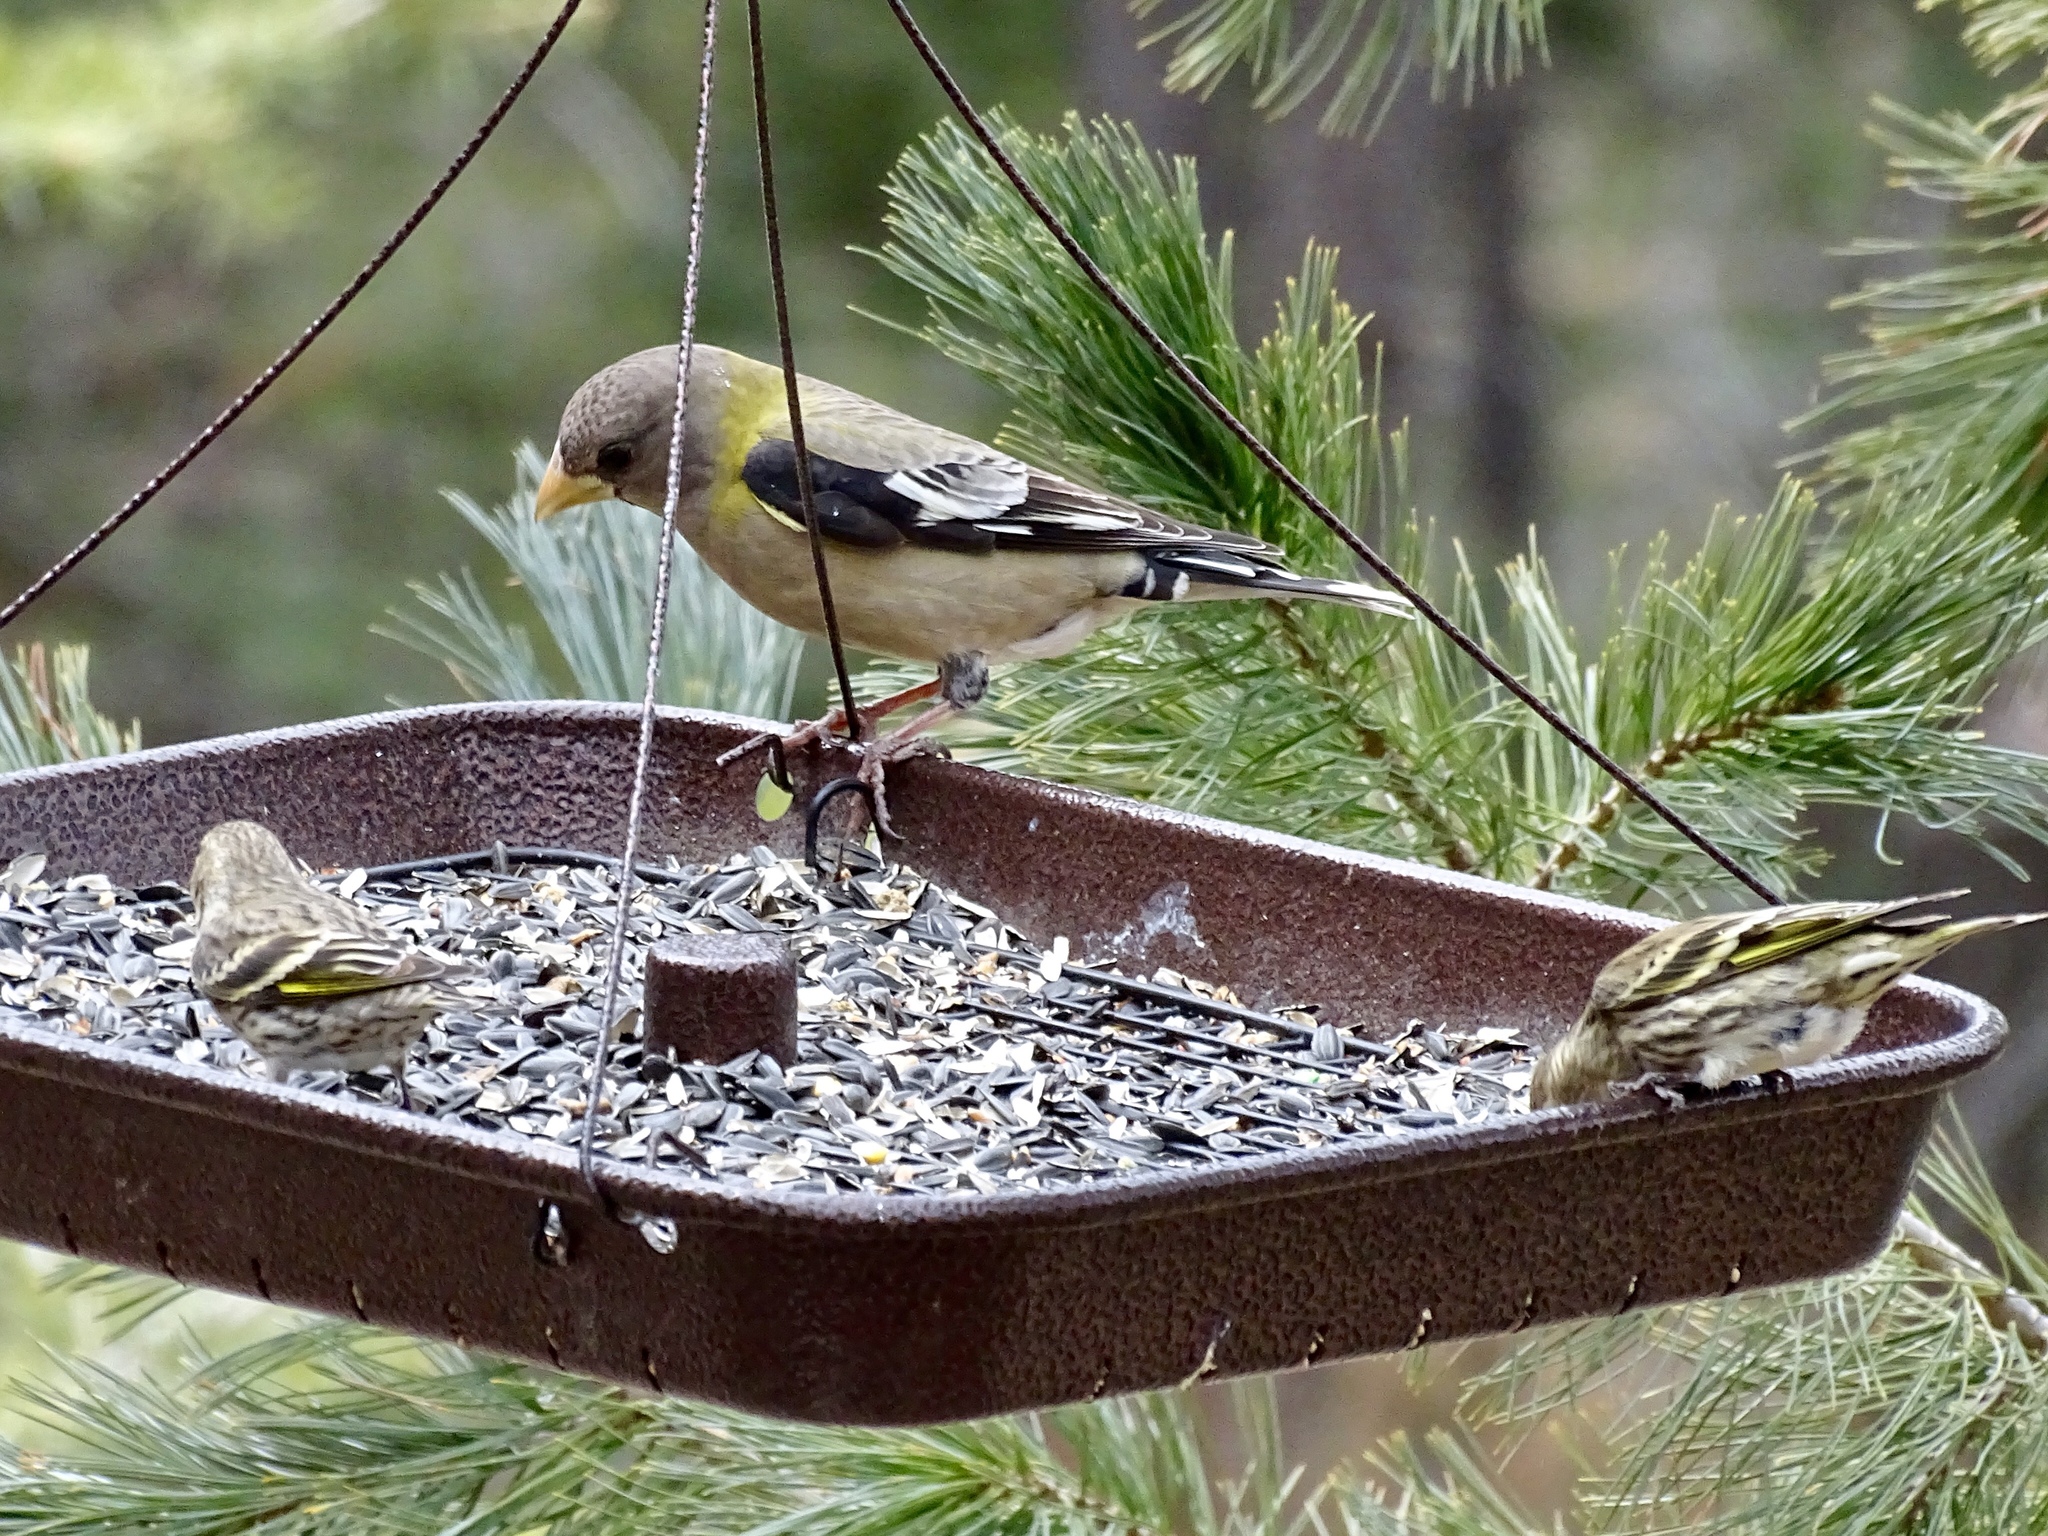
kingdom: Animalia
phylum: Chordata
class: Aves
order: Passeriformes
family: Fringillidae
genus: Hesperiphona
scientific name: Hesperiphona vespertina
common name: Evening grosbeak
